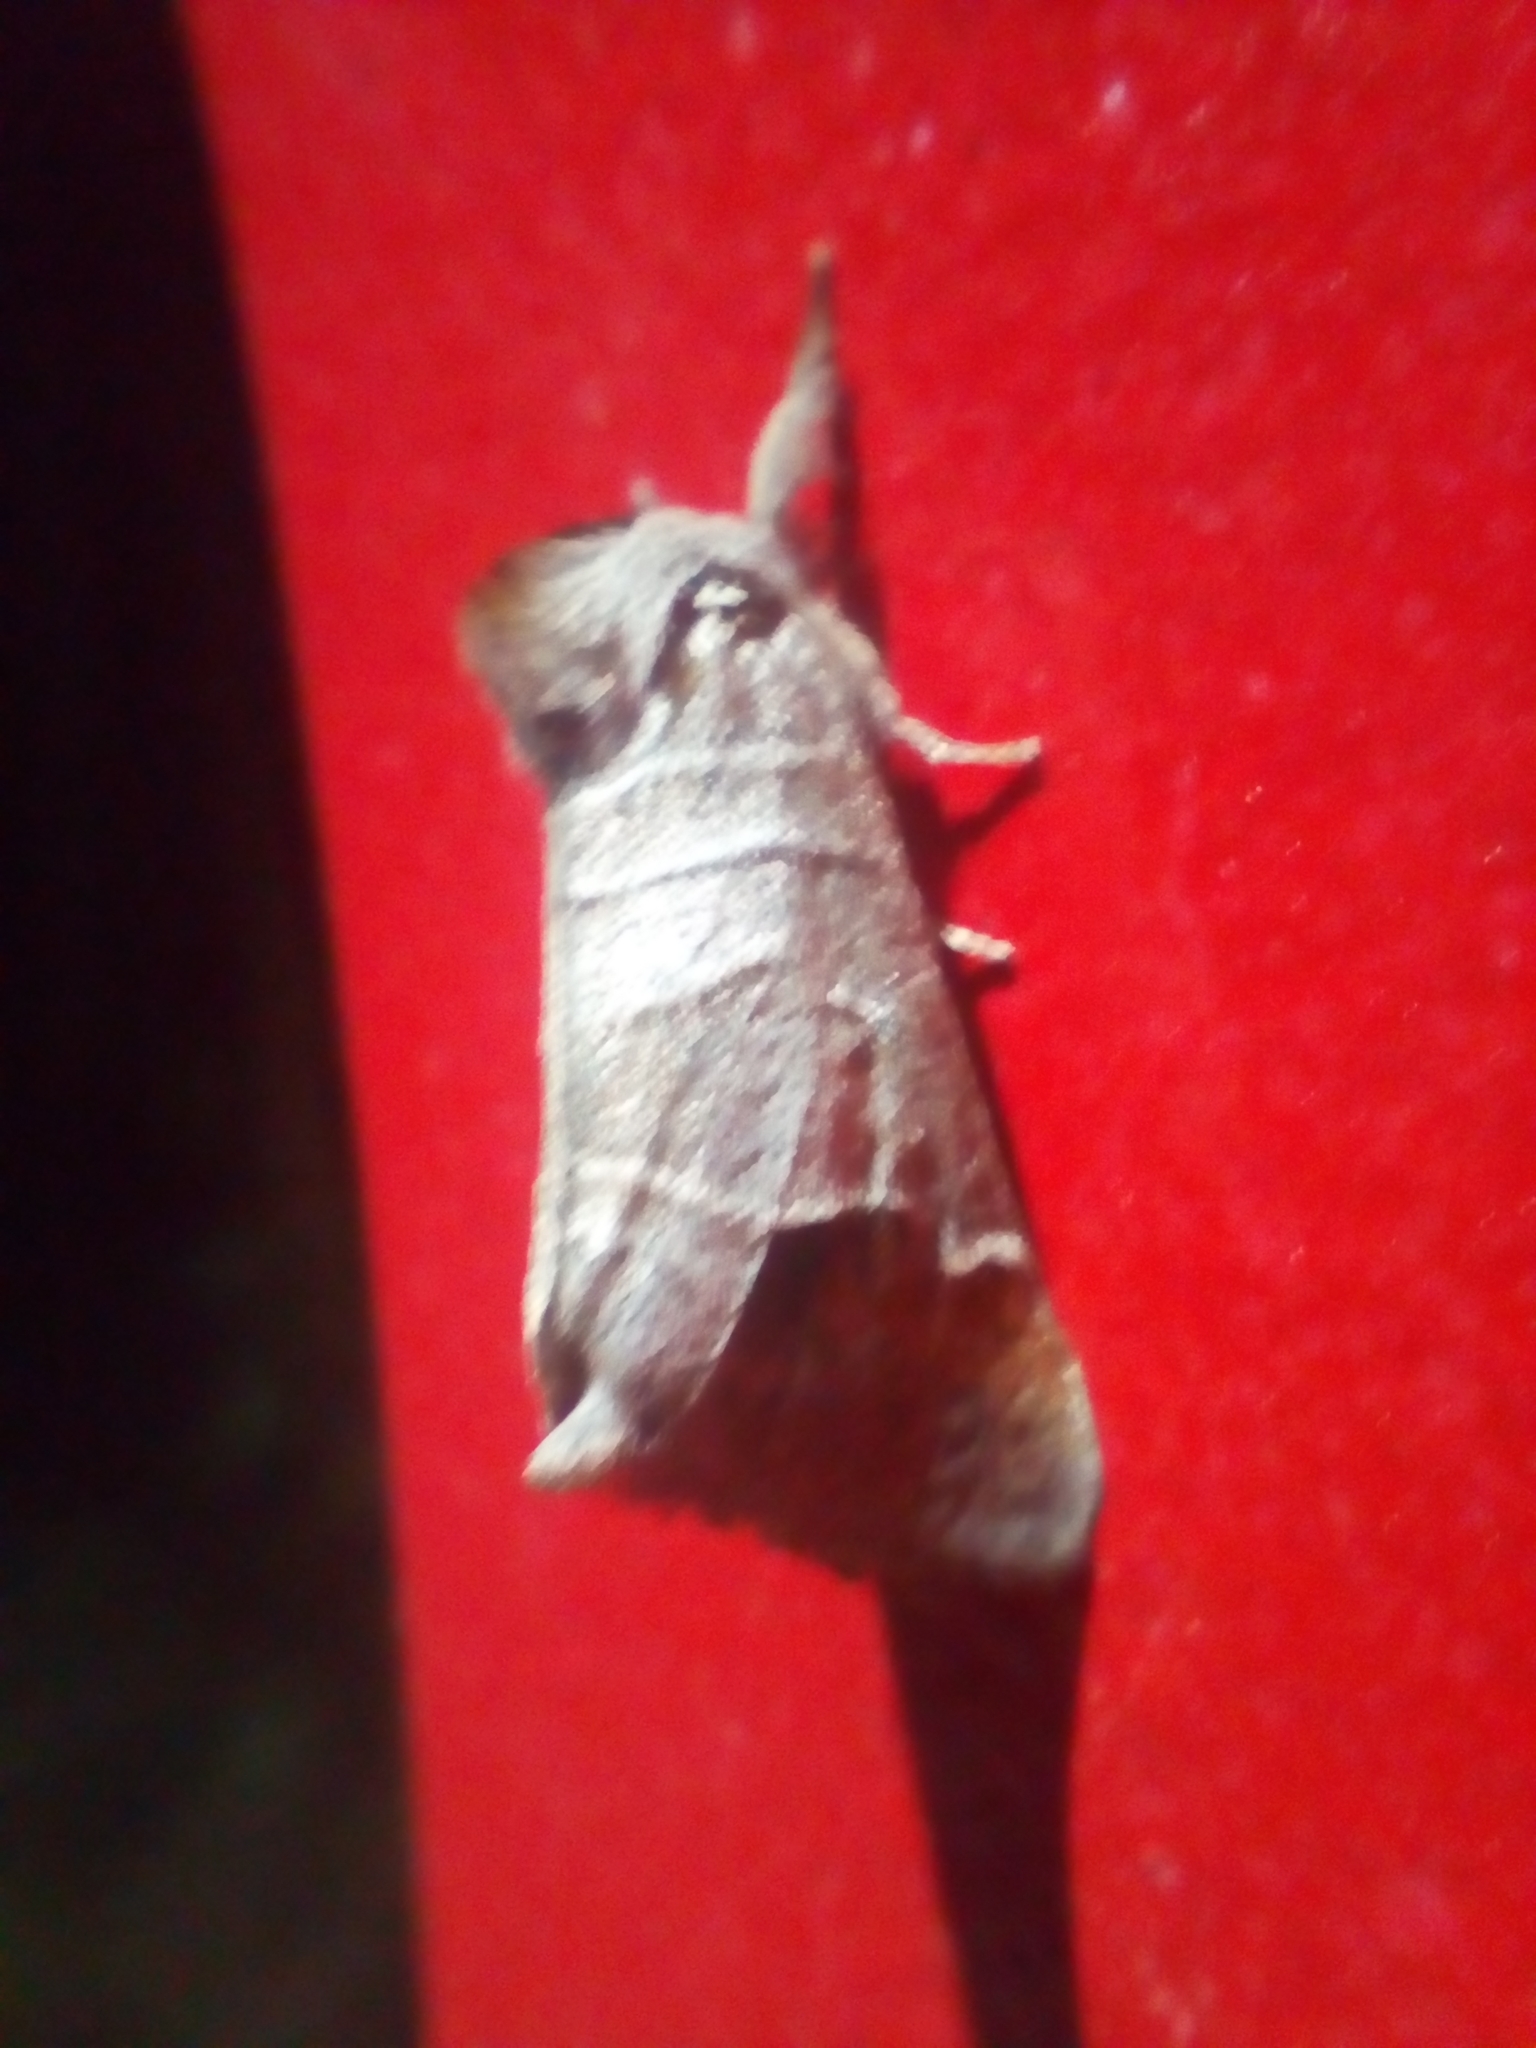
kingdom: Animalia
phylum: Arthropoda
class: Insecta
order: Lepidoptera
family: Notodontidae
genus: Clostera
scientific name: Clostera curtula
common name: Chocolate-tip
